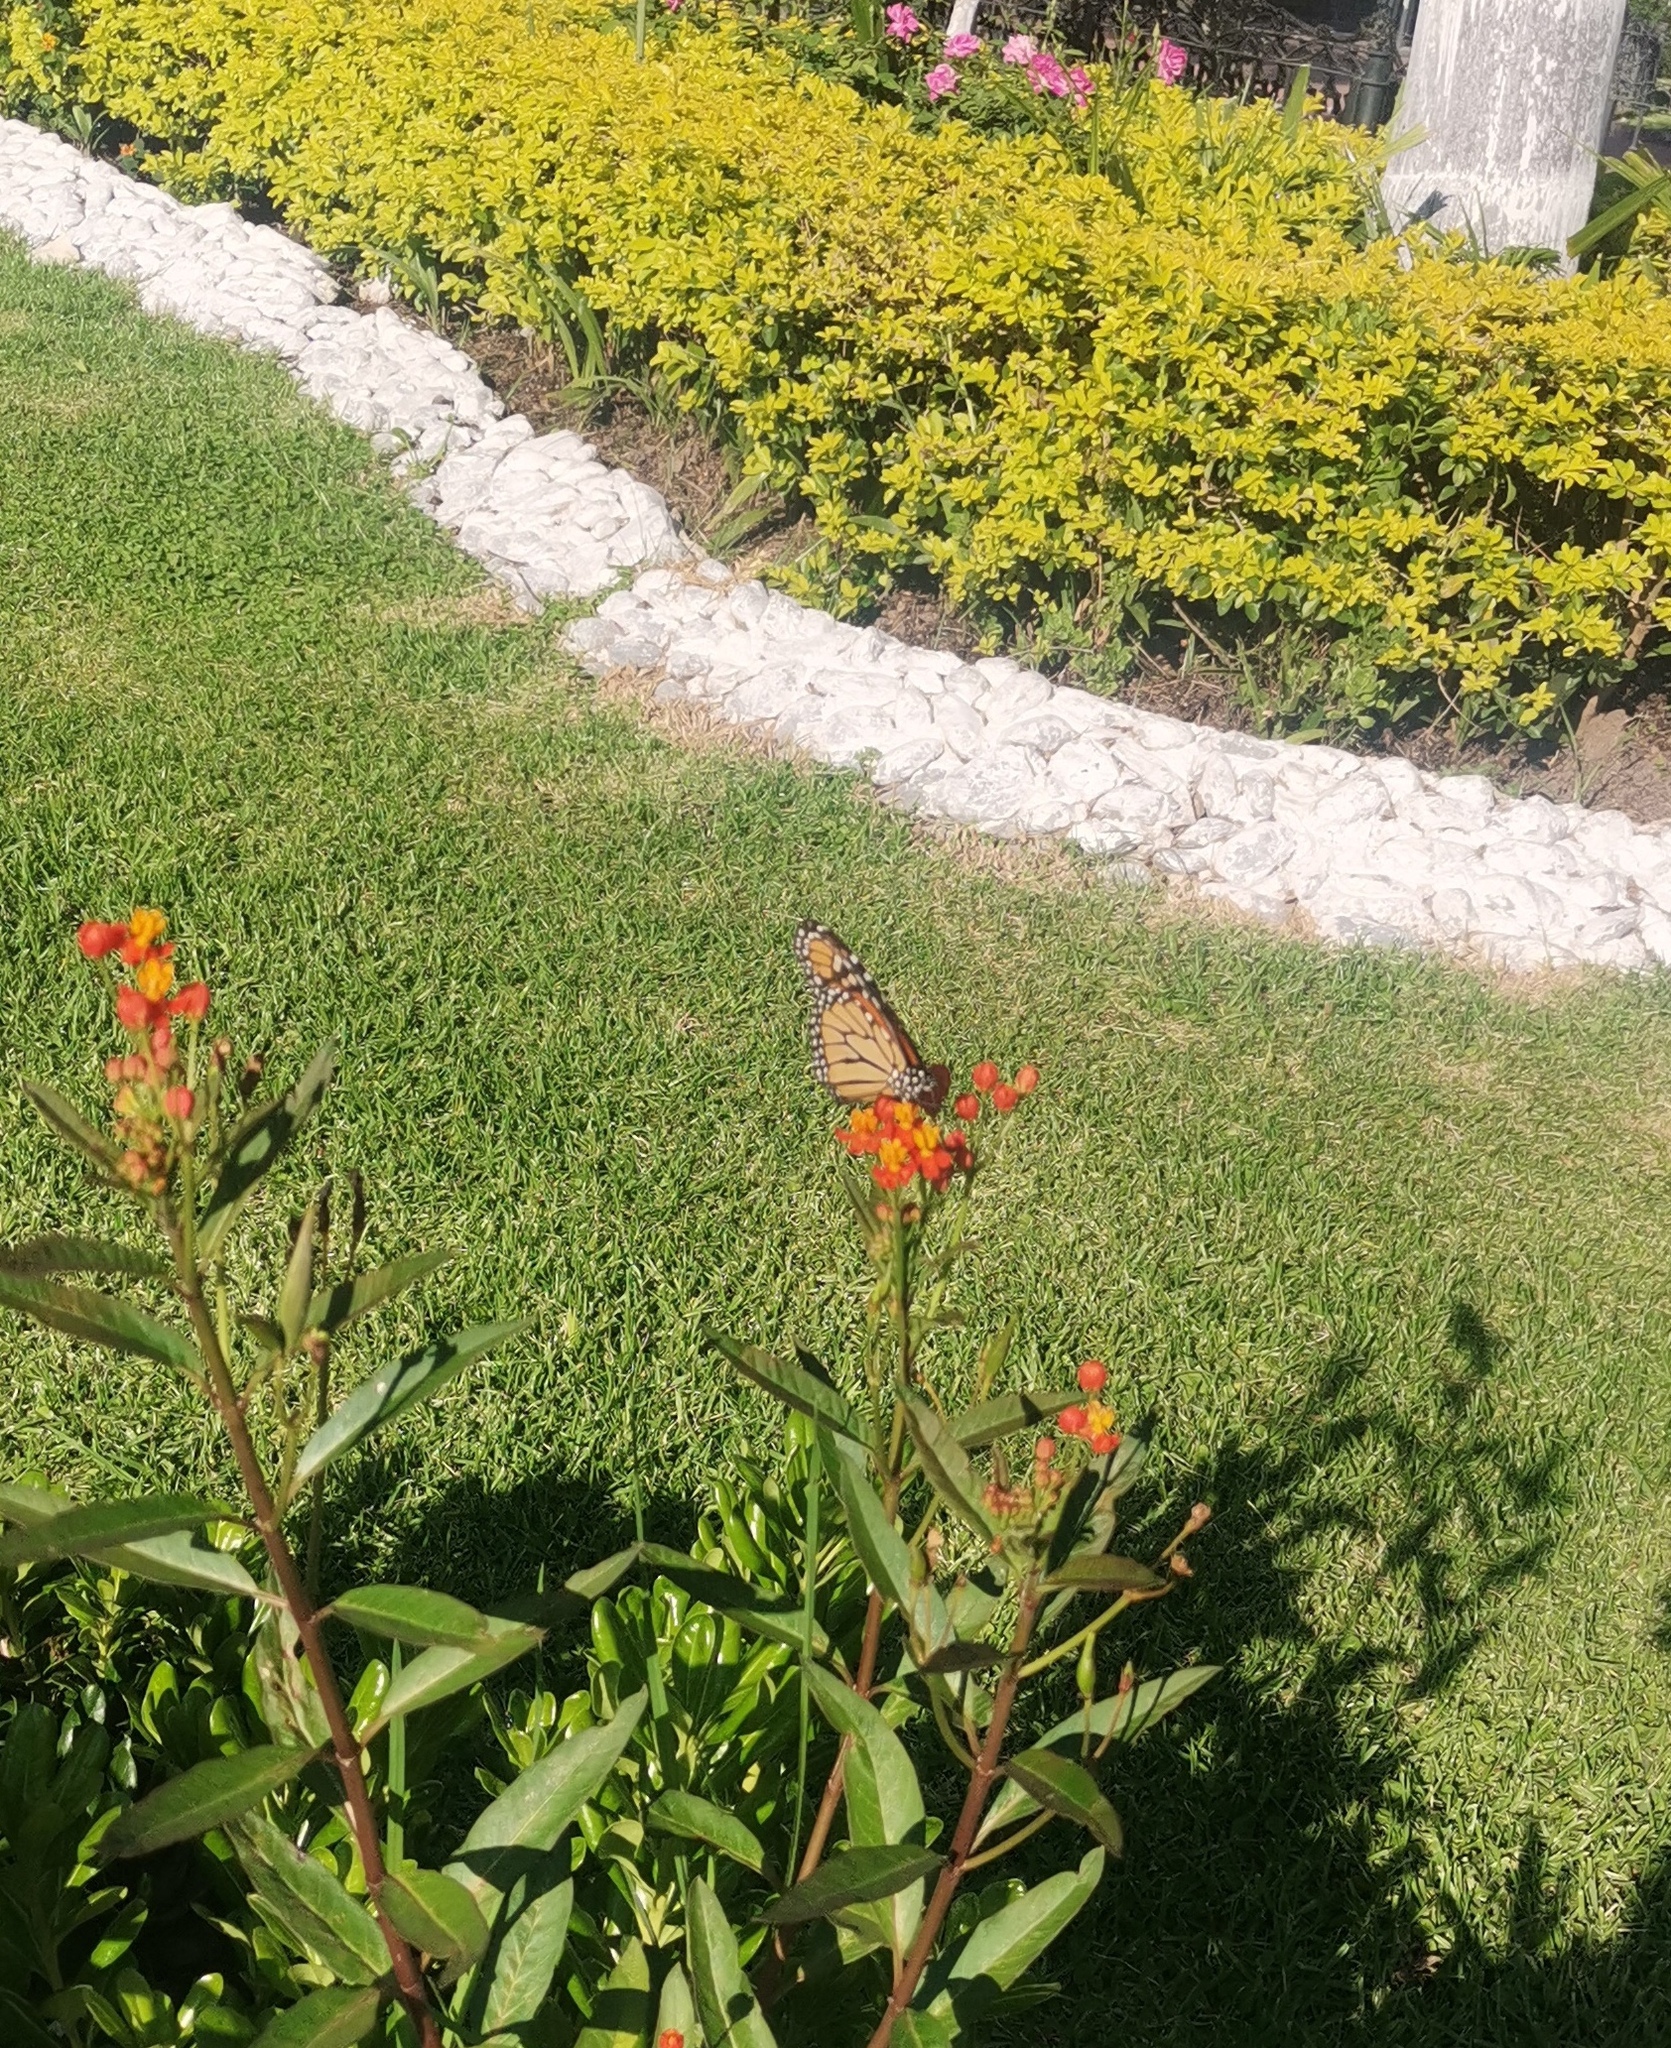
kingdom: Animalia
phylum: Arthropoda
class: Insecta
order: Lepidoptera
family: Nymphalidae
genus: Danaus
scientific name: Danaus plexippus
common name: Monarch
